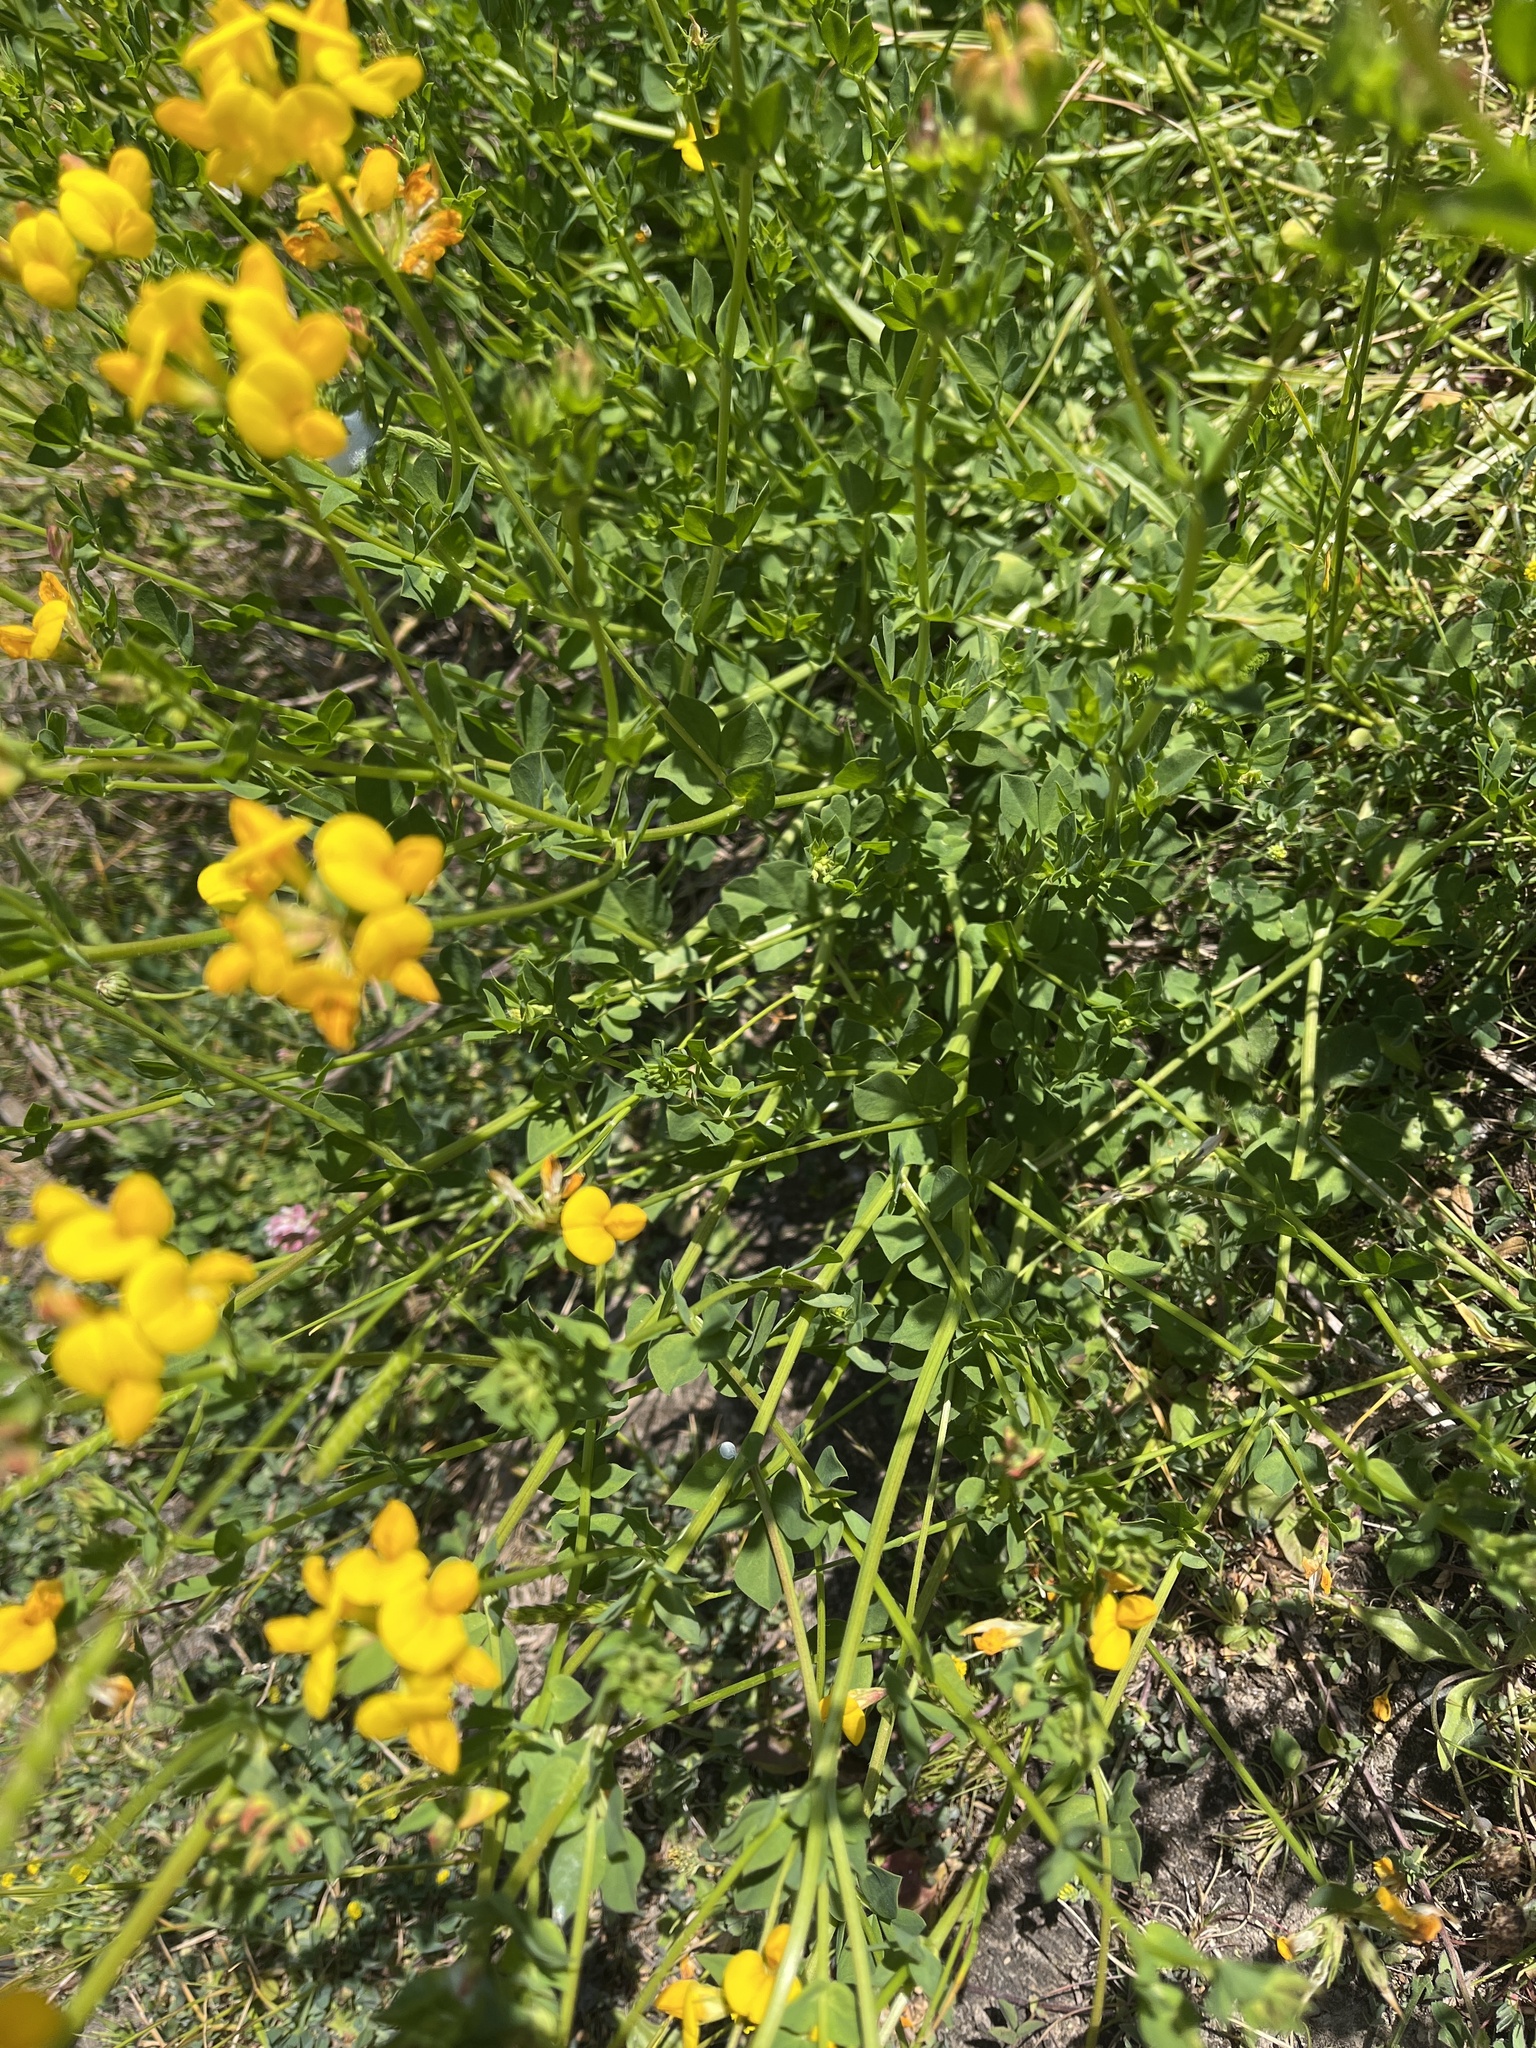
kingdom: Plantae
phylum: Tracheophyta
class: Magnoliopsida
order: Fabales
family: Fabaceae
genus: Lotus
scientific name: Lotus corniculatus
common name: Common bird's-foot-trefoil
